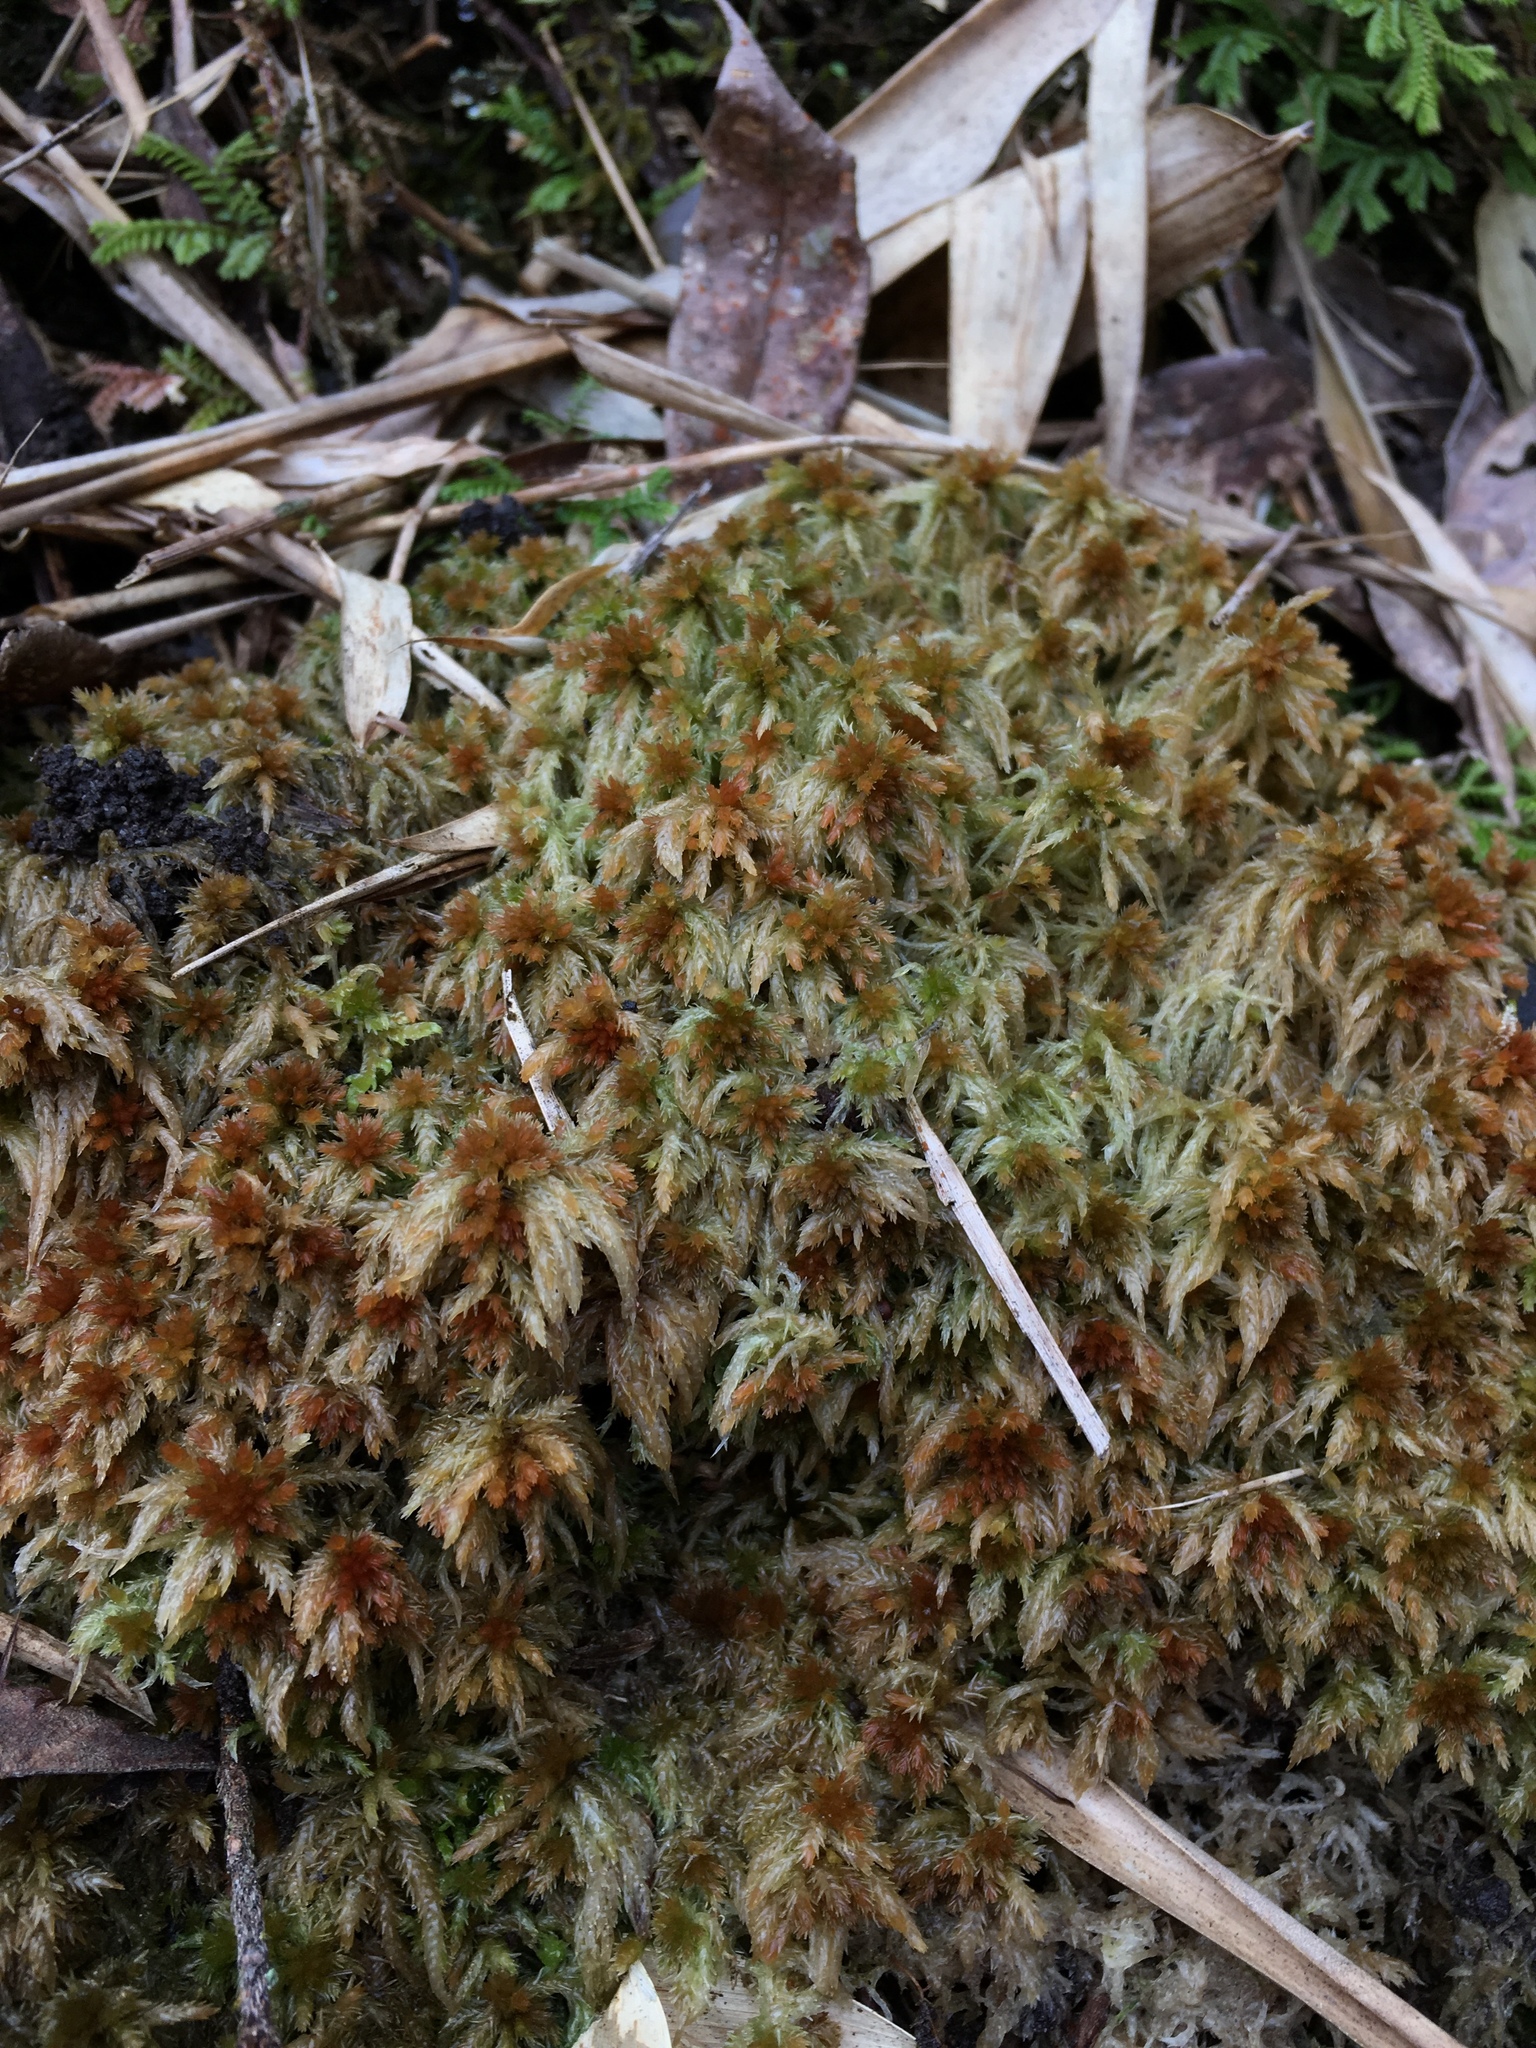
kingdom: Plantae
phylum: Bryophyta
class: Sphagnopsida
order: Sphagnales
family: Sphagnaceae
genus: Sphagnum
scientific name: Sphagnum junghuhnianum
